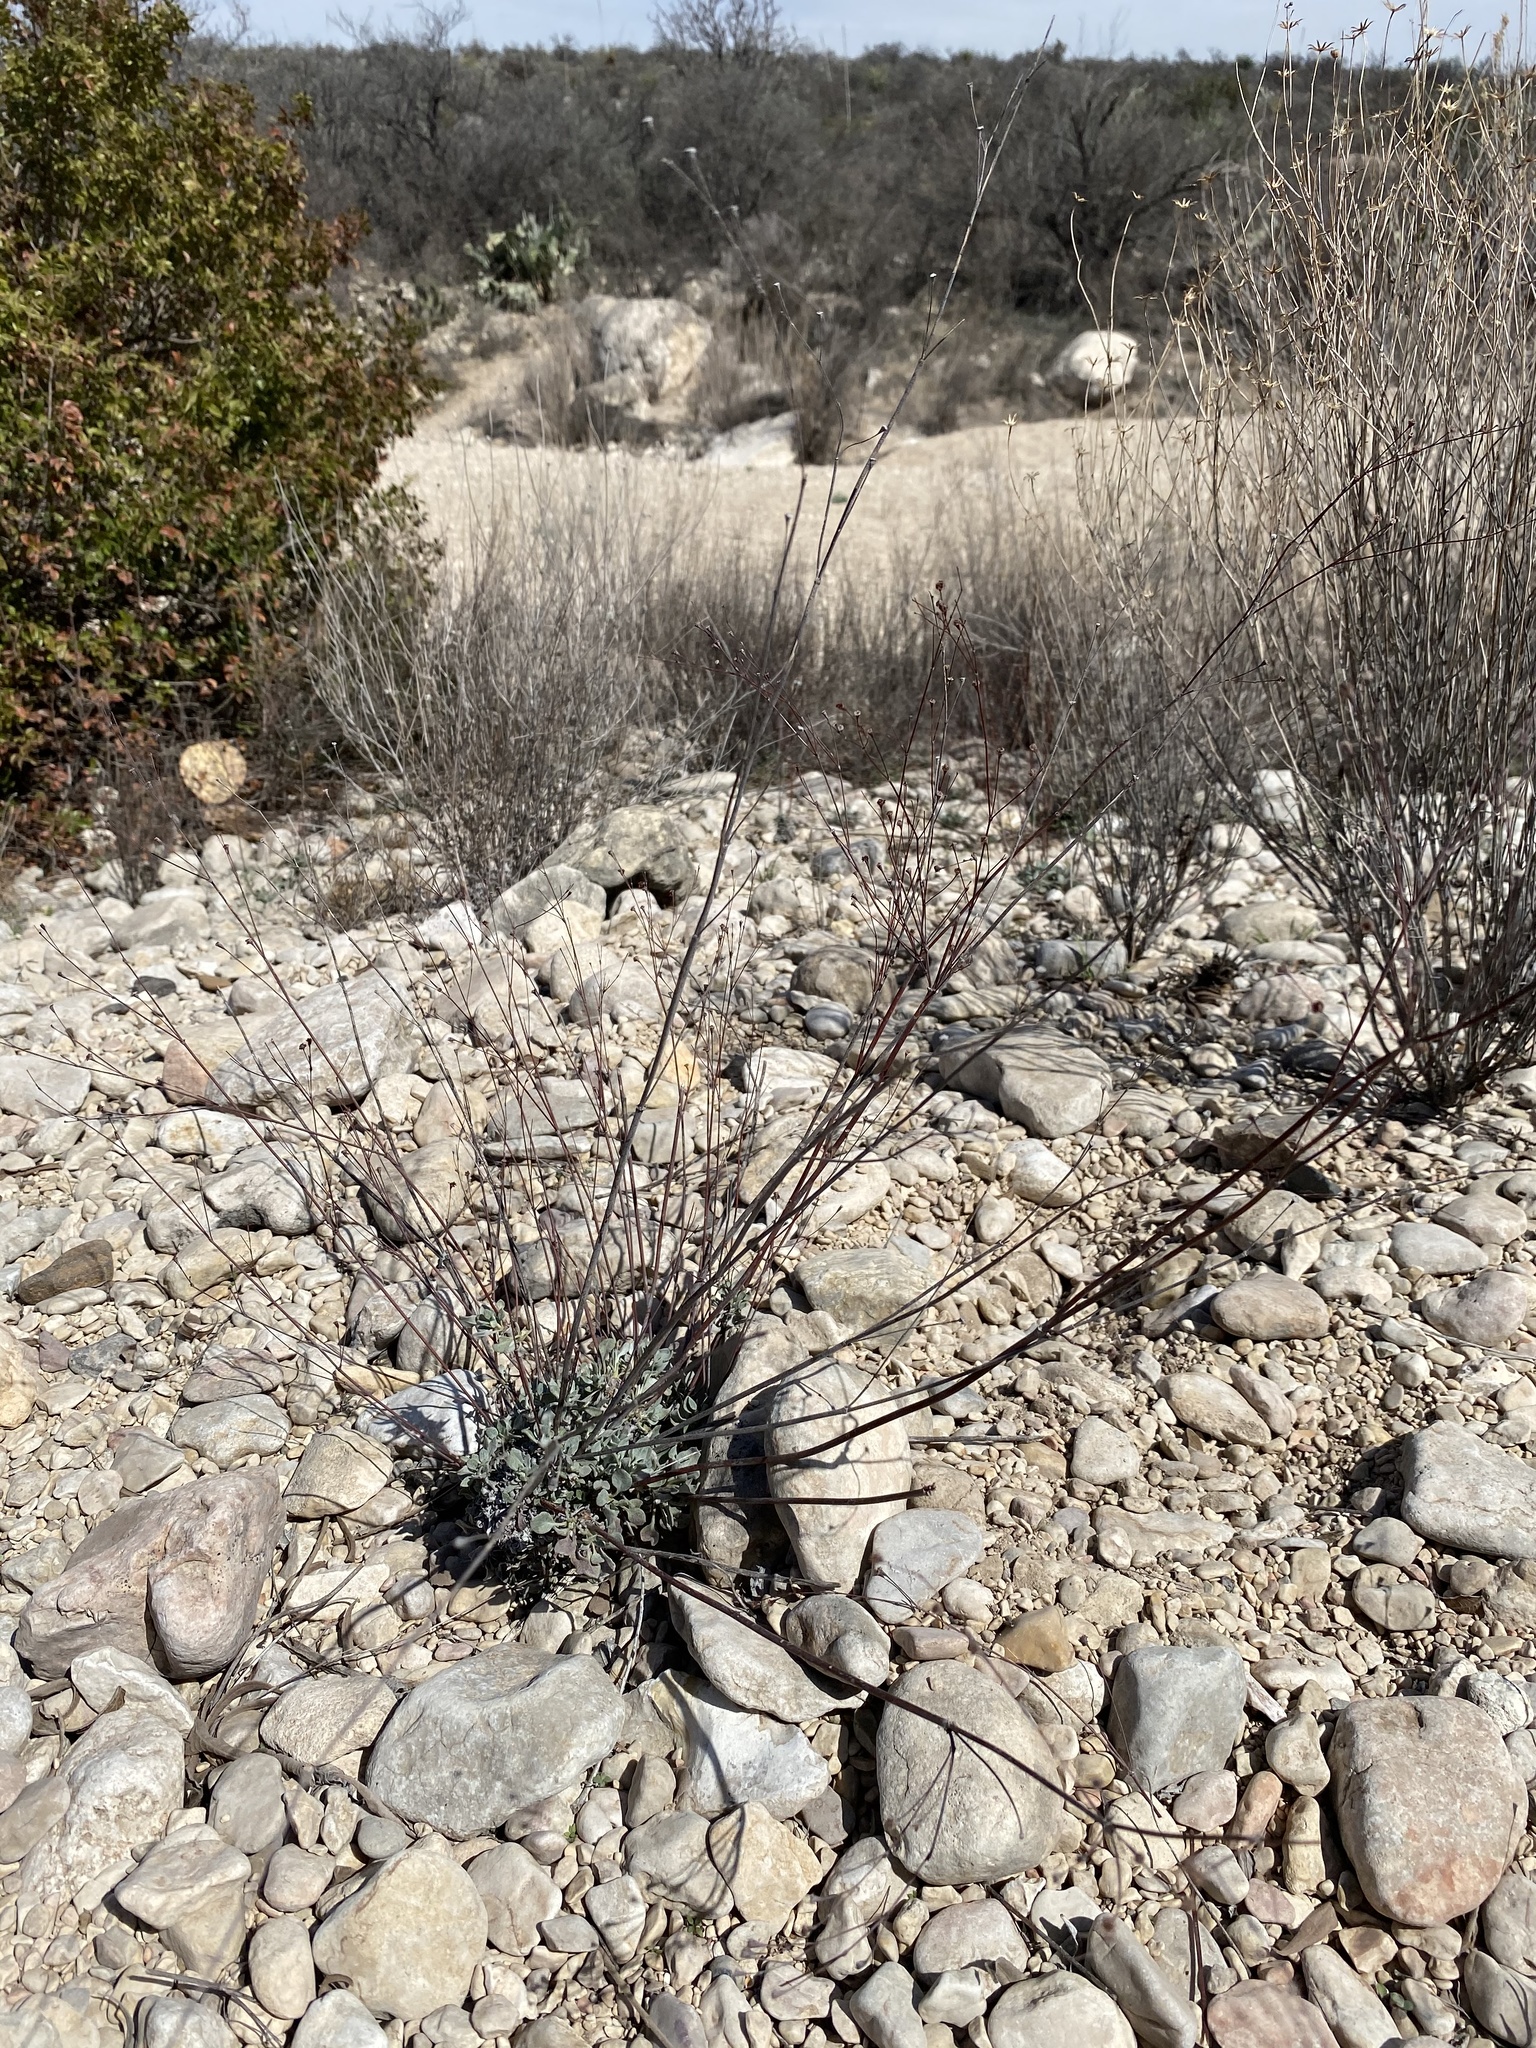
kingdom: Plantae
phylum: Tracheophyta
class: Magnoliopsida
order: Caryophyllales
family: Polygonaceae
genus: Eriogonum
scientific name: Eriogonum tenellum
